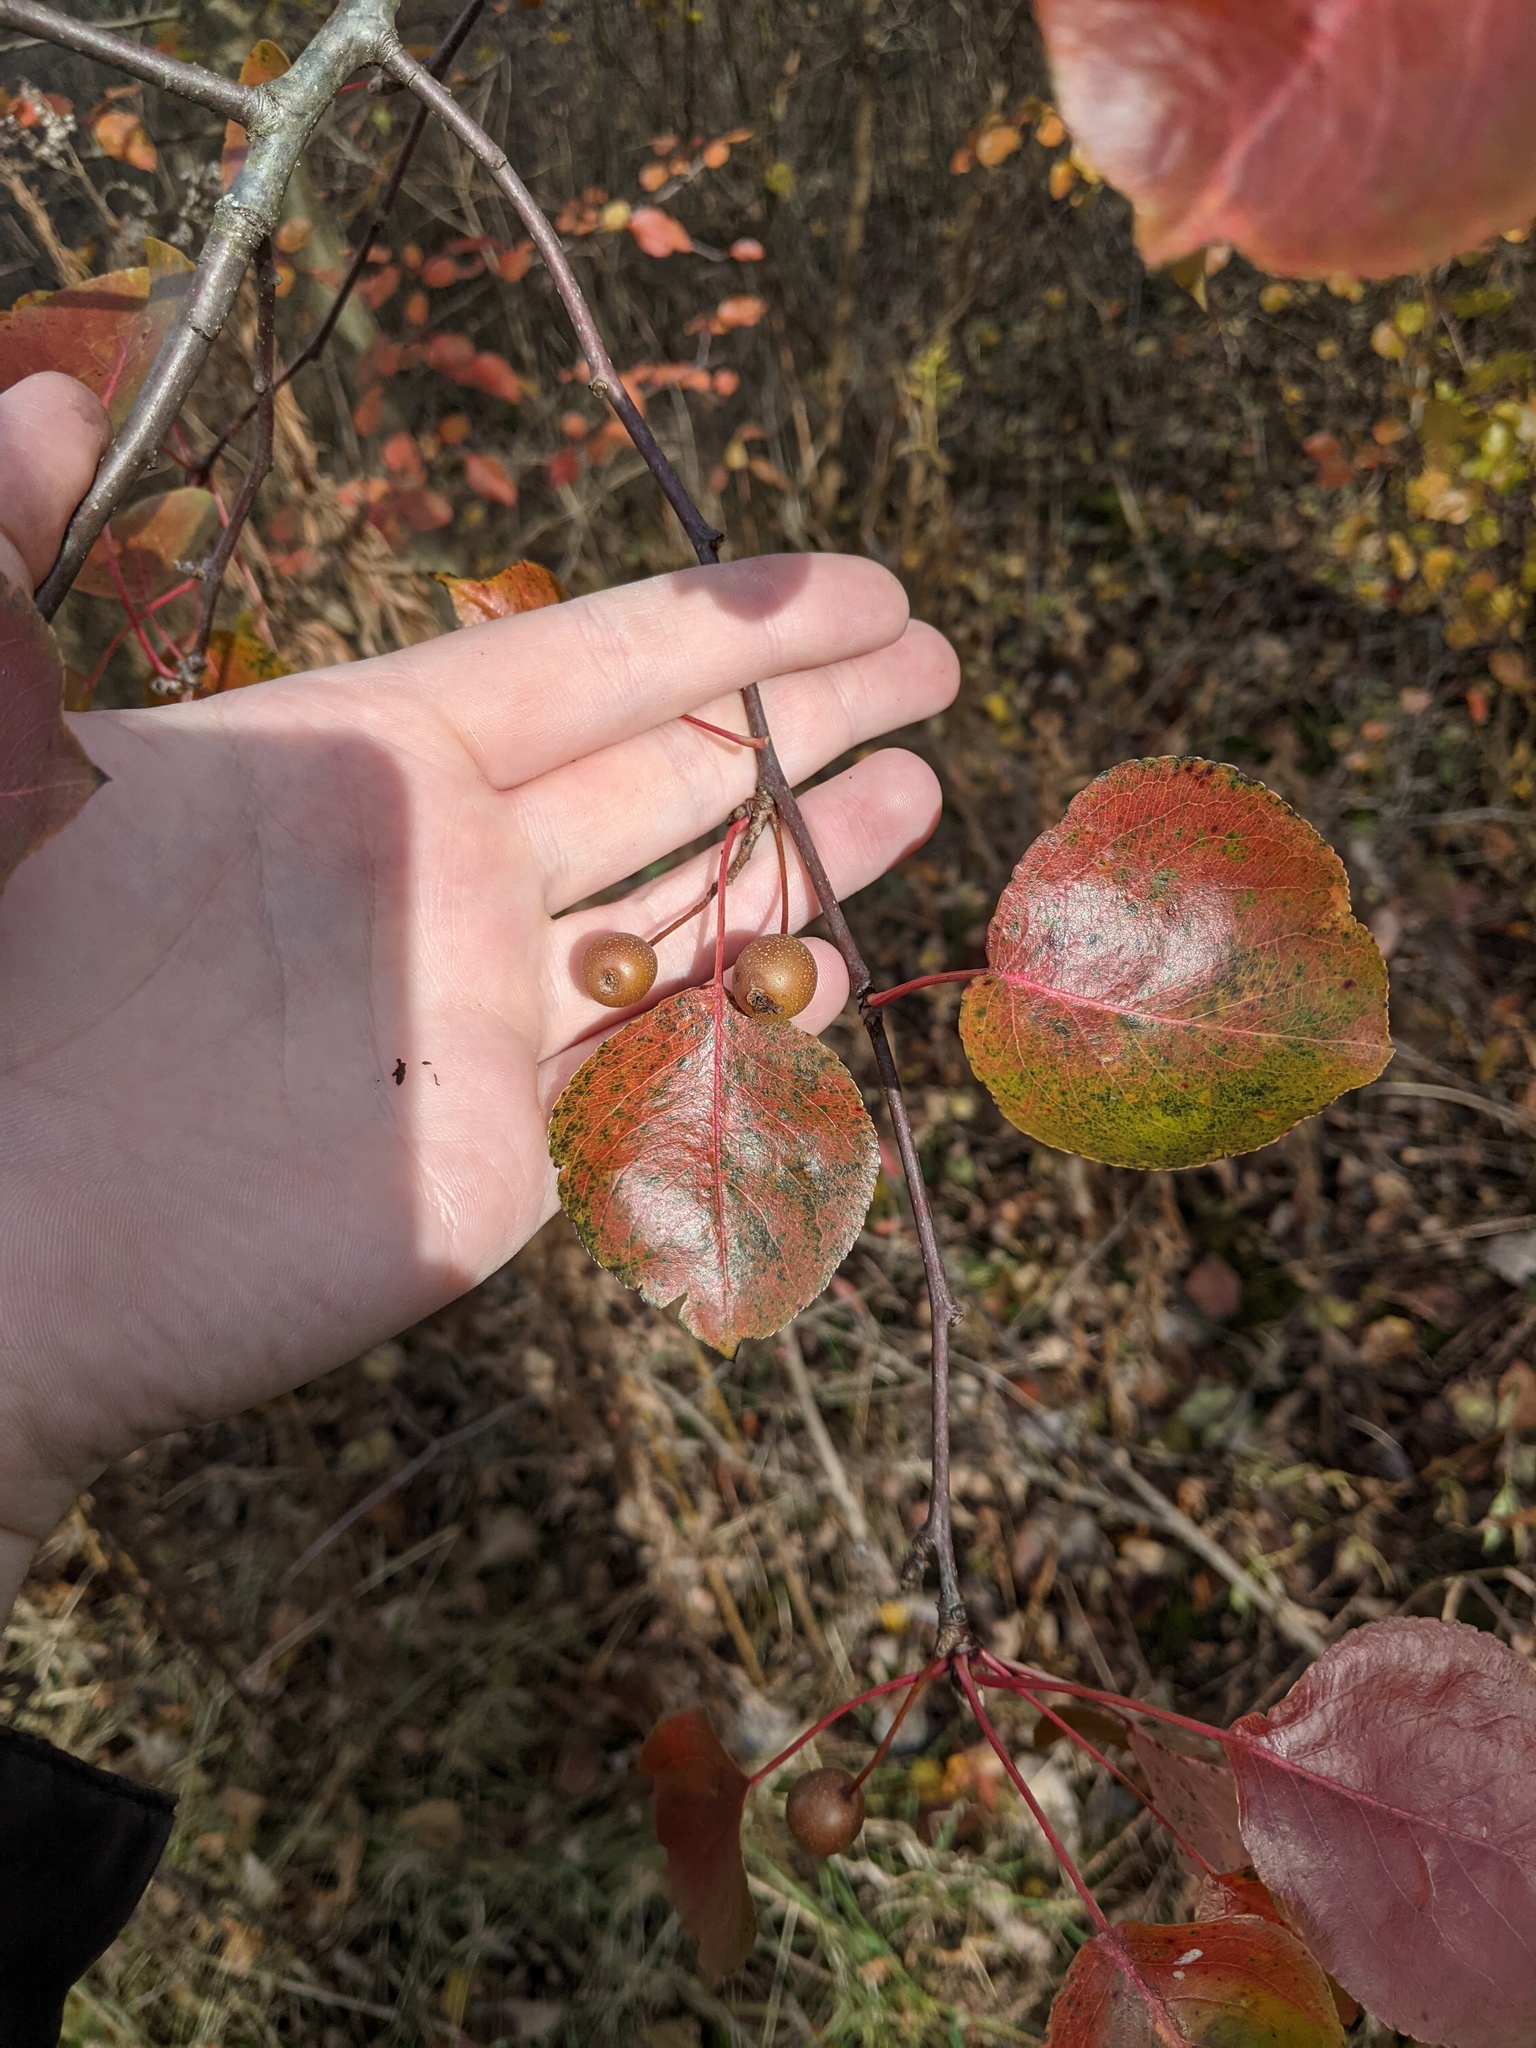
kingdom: Plantae
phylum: Tracheophyta
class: Magnoliopsida
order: Rosales
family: Rosaceae
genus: Pyrus
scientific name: Pyrus calleryana
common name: Callery pear
